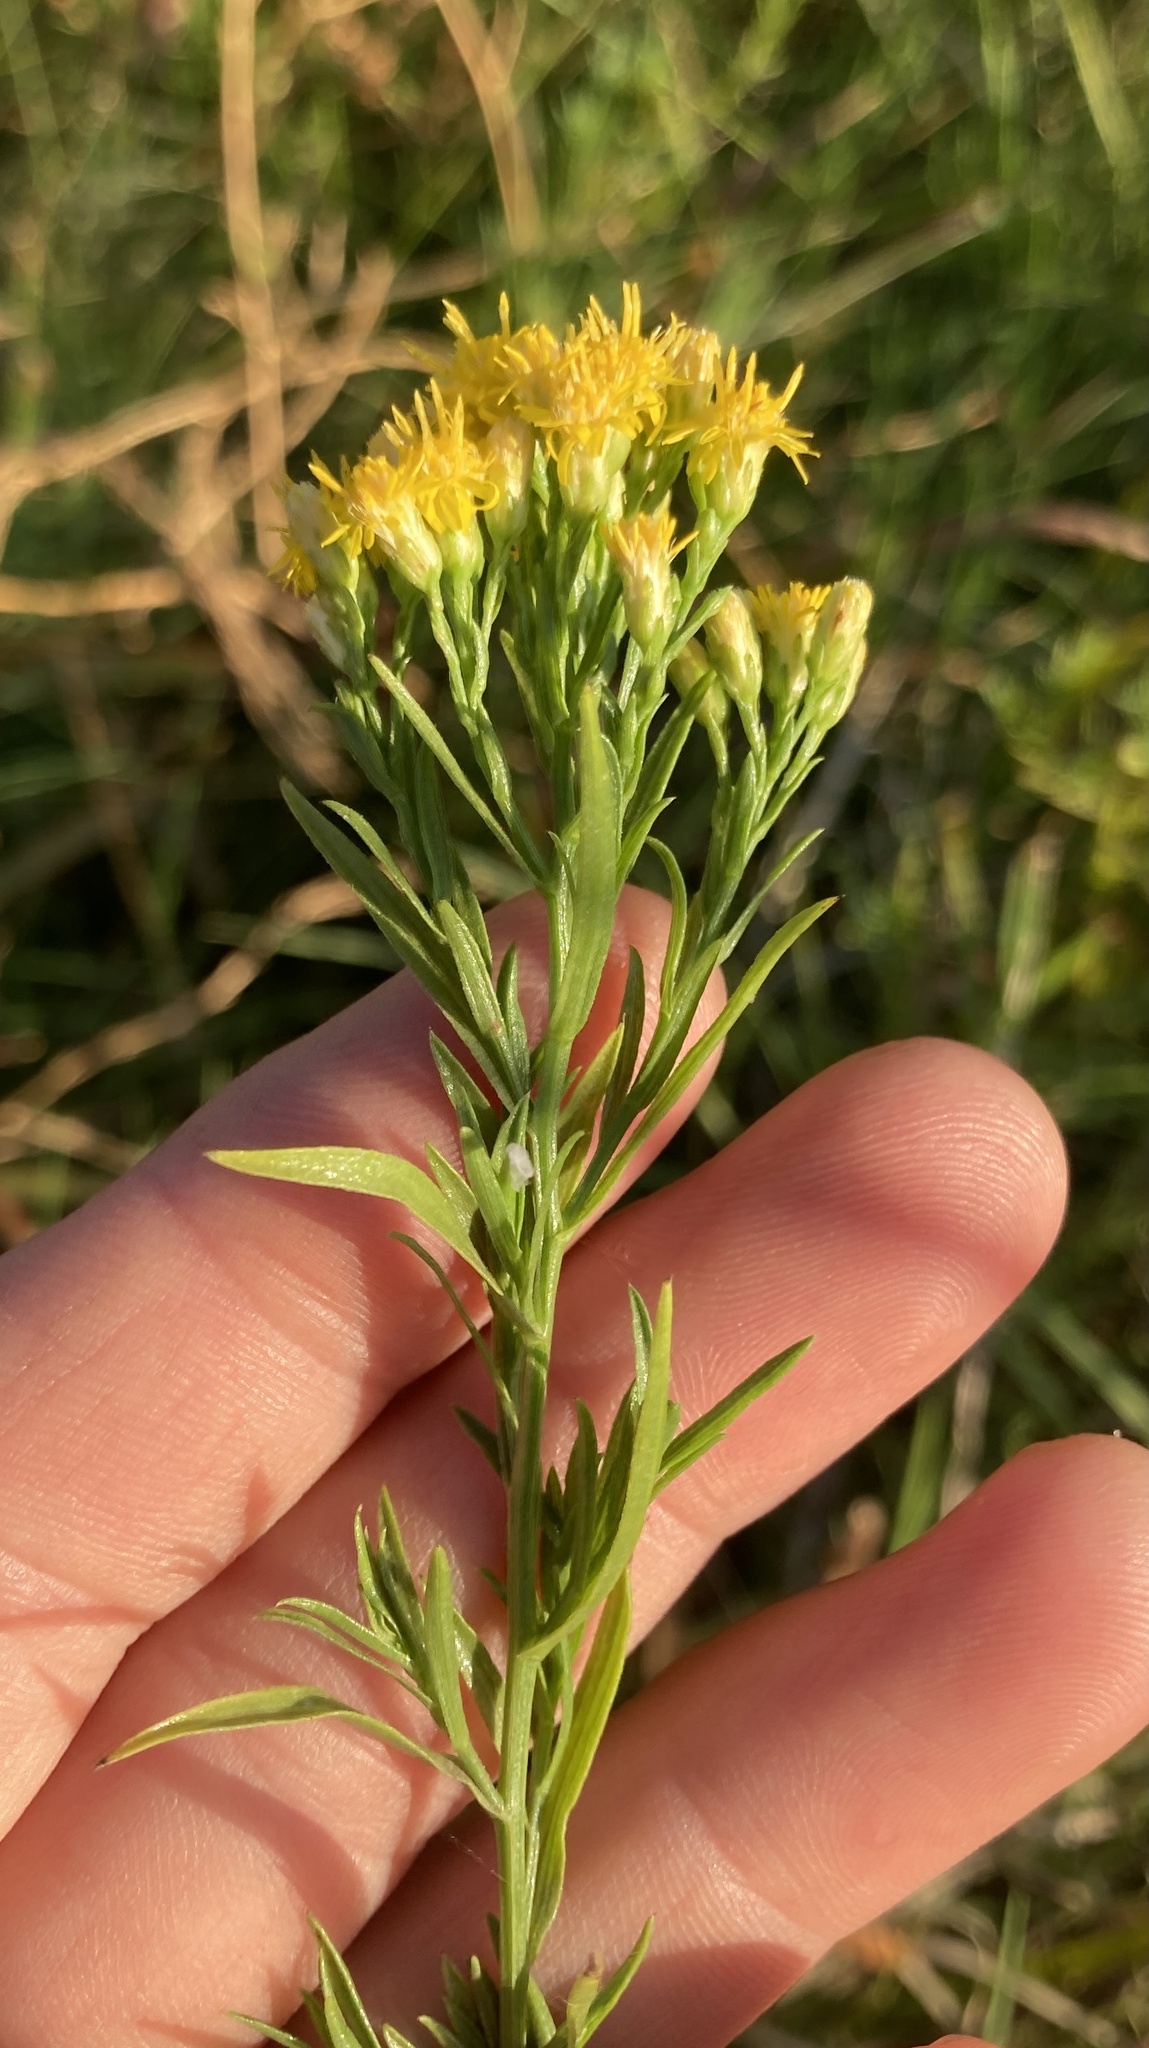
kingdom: Plantae
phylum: Tracheophyta
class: Magnoliopsida
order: Asterales
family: Asteraceae
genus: Euthamia
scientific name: Euthamia occidentalis
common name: Western goldentop
